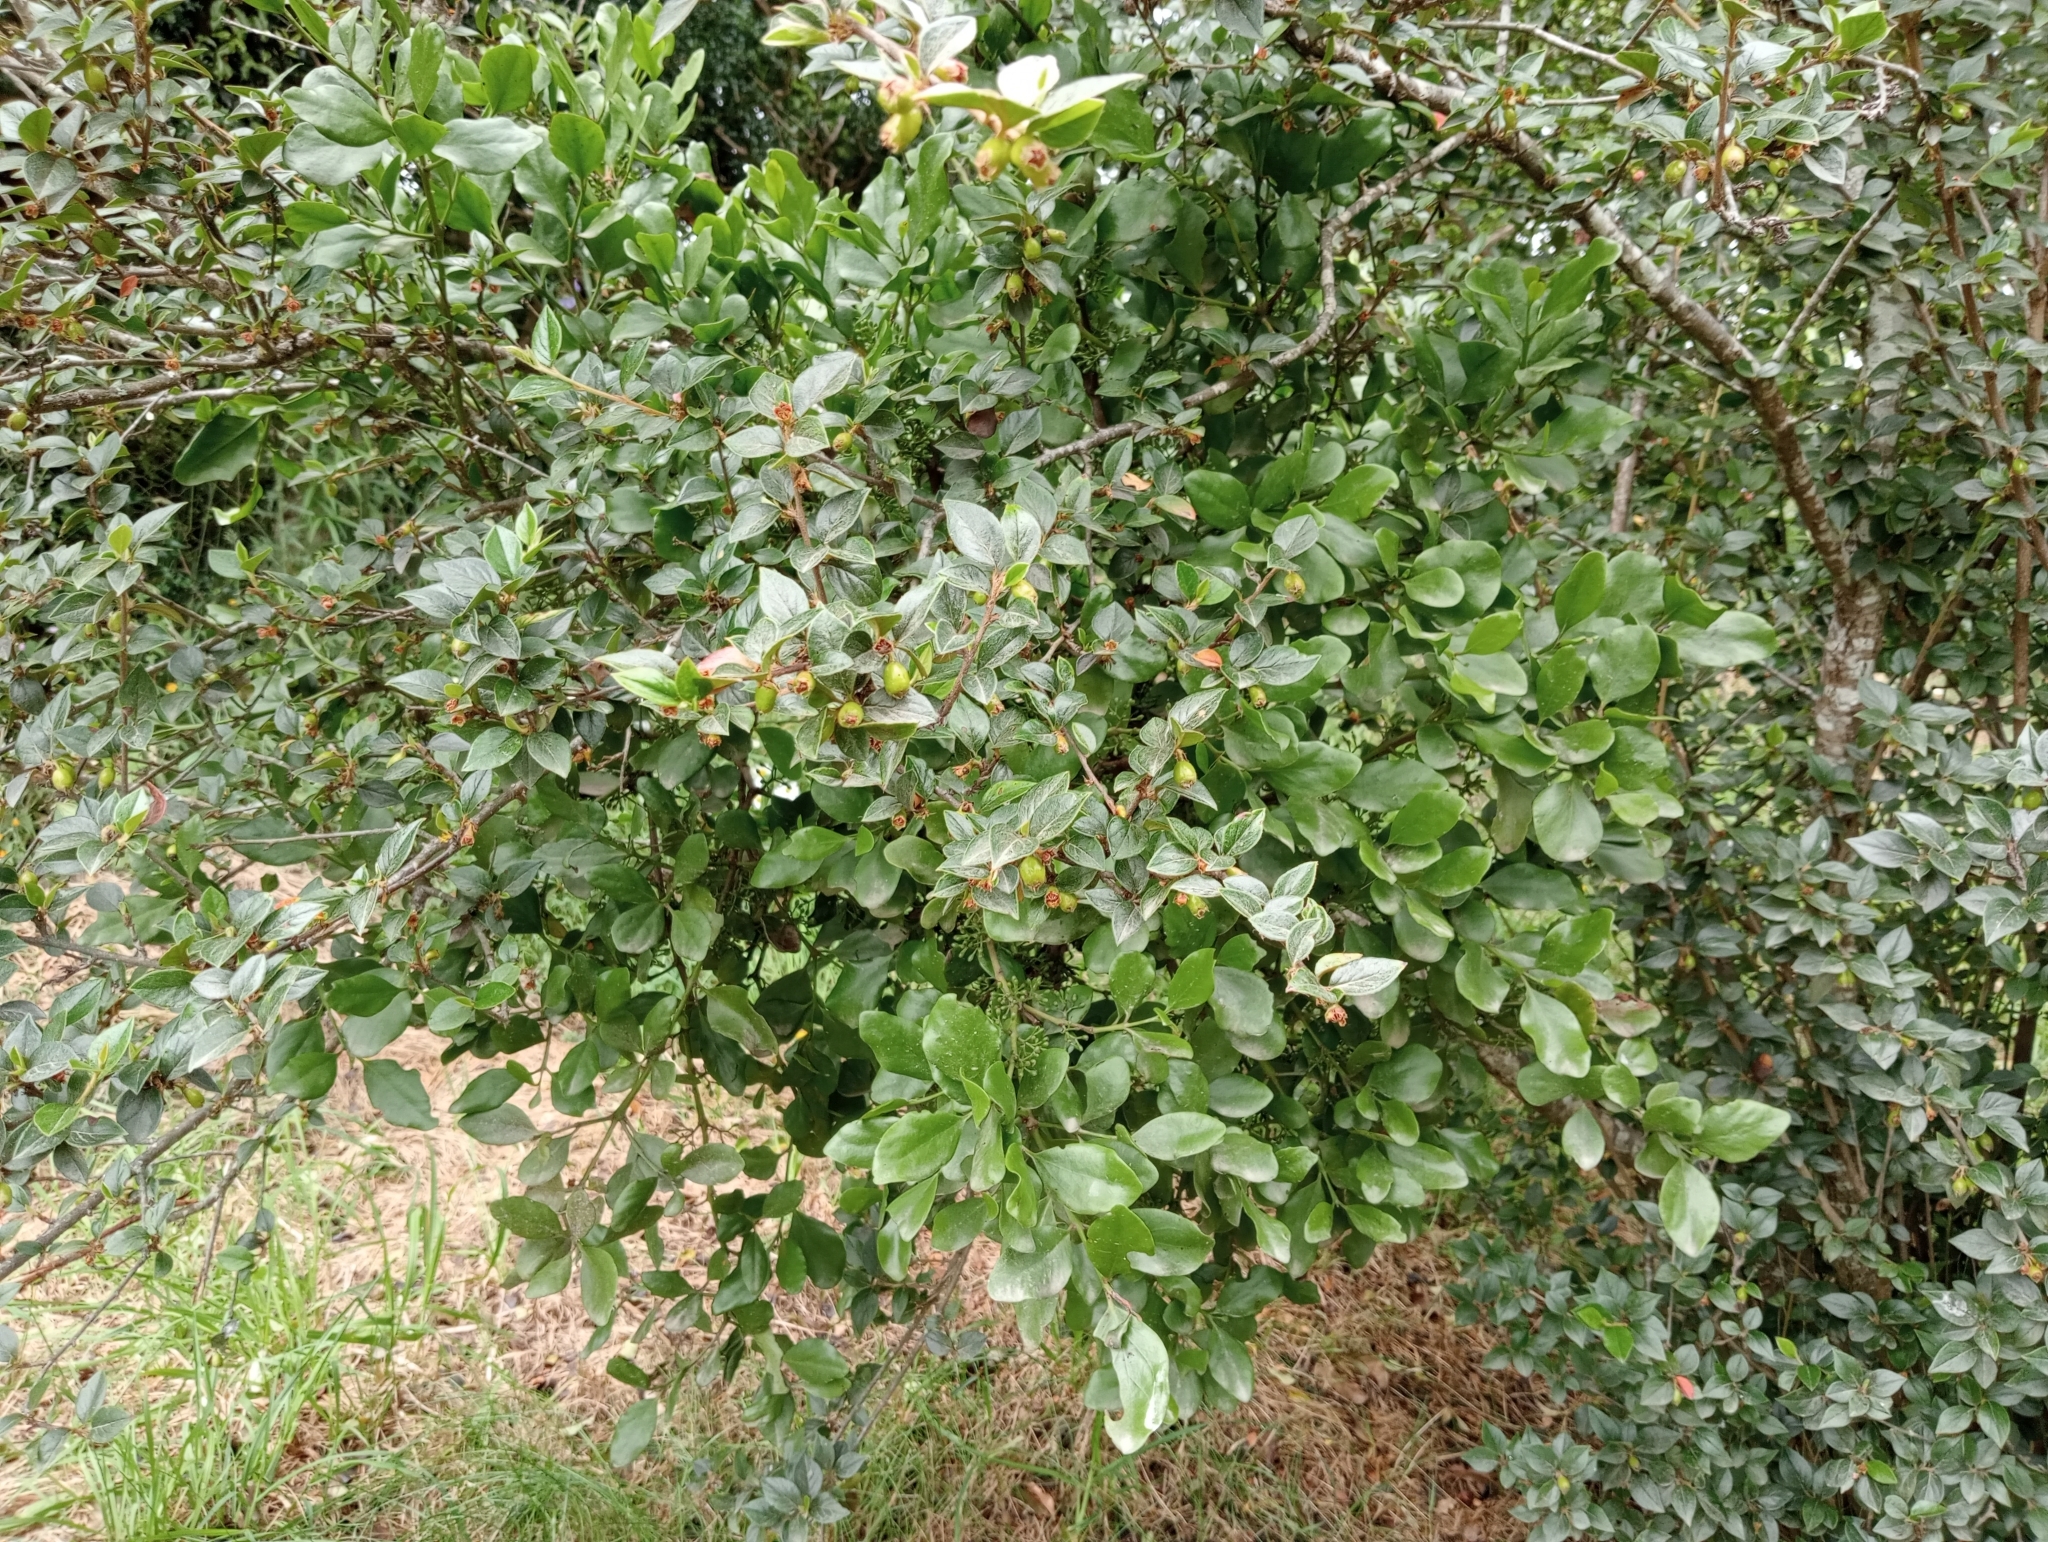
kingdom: Plantae
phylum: Tracheophyta
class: Magnoliopsida
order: Santalales
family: Loranthaceae
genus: Ileostylus
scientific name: Ileostylus micranthus
